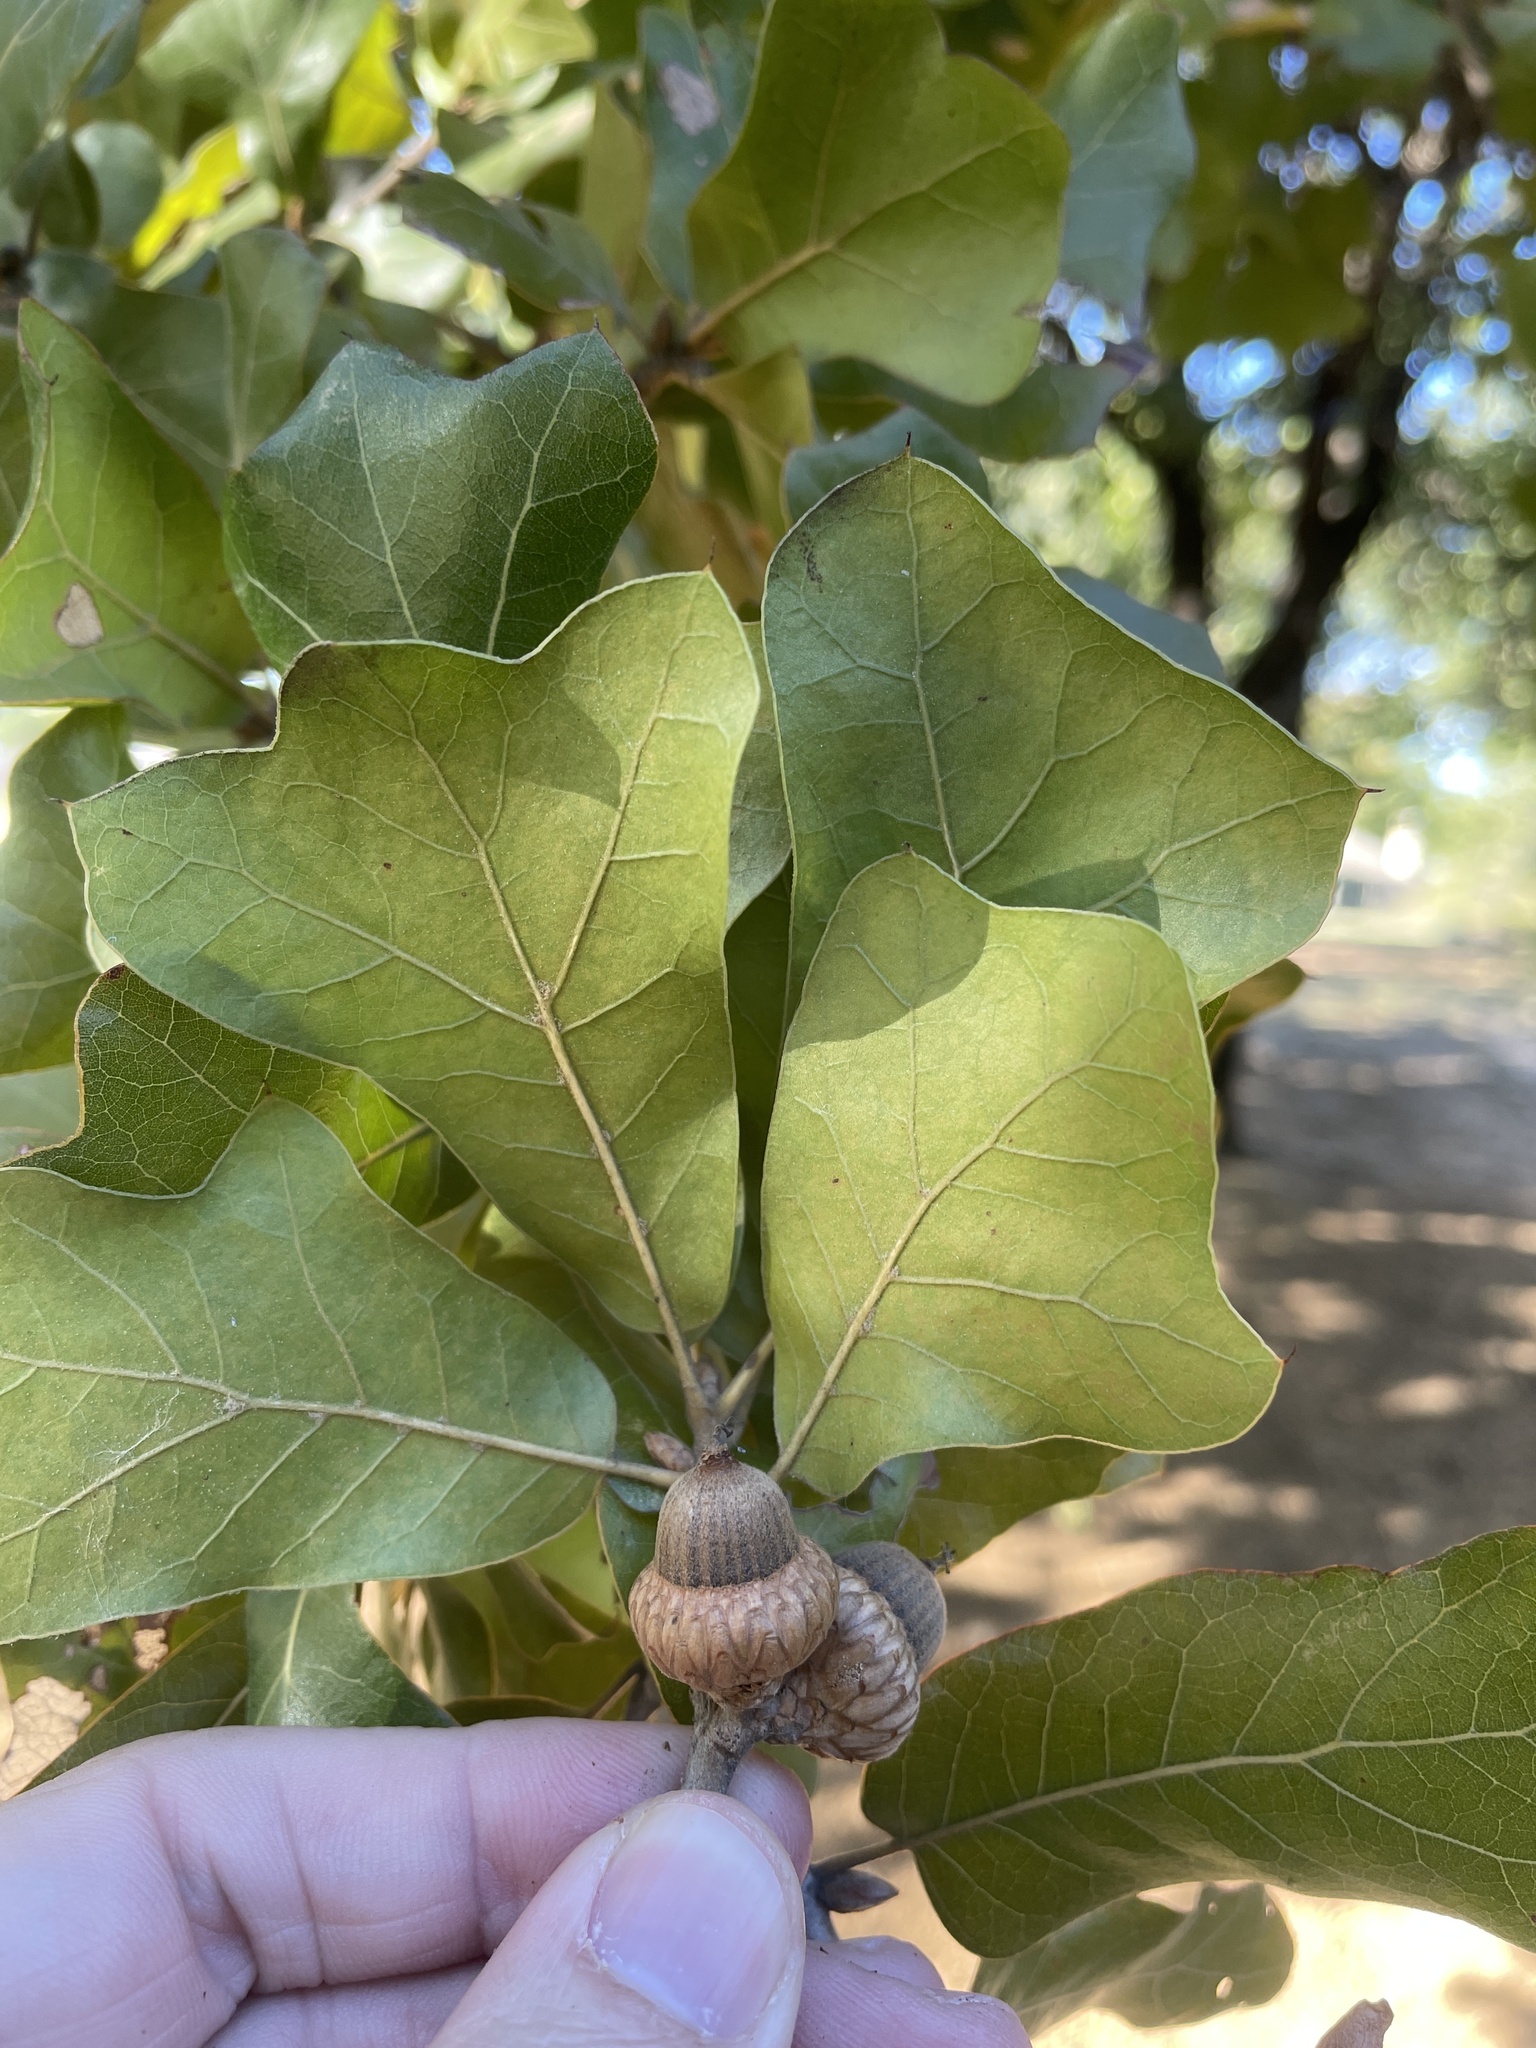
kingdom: Plantae
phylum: Tracheophyta
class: Magnoliopsida
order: Fagales
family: Fagaceae
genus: Quercus
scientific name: Quercus marilandica
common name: Blackjack oak
